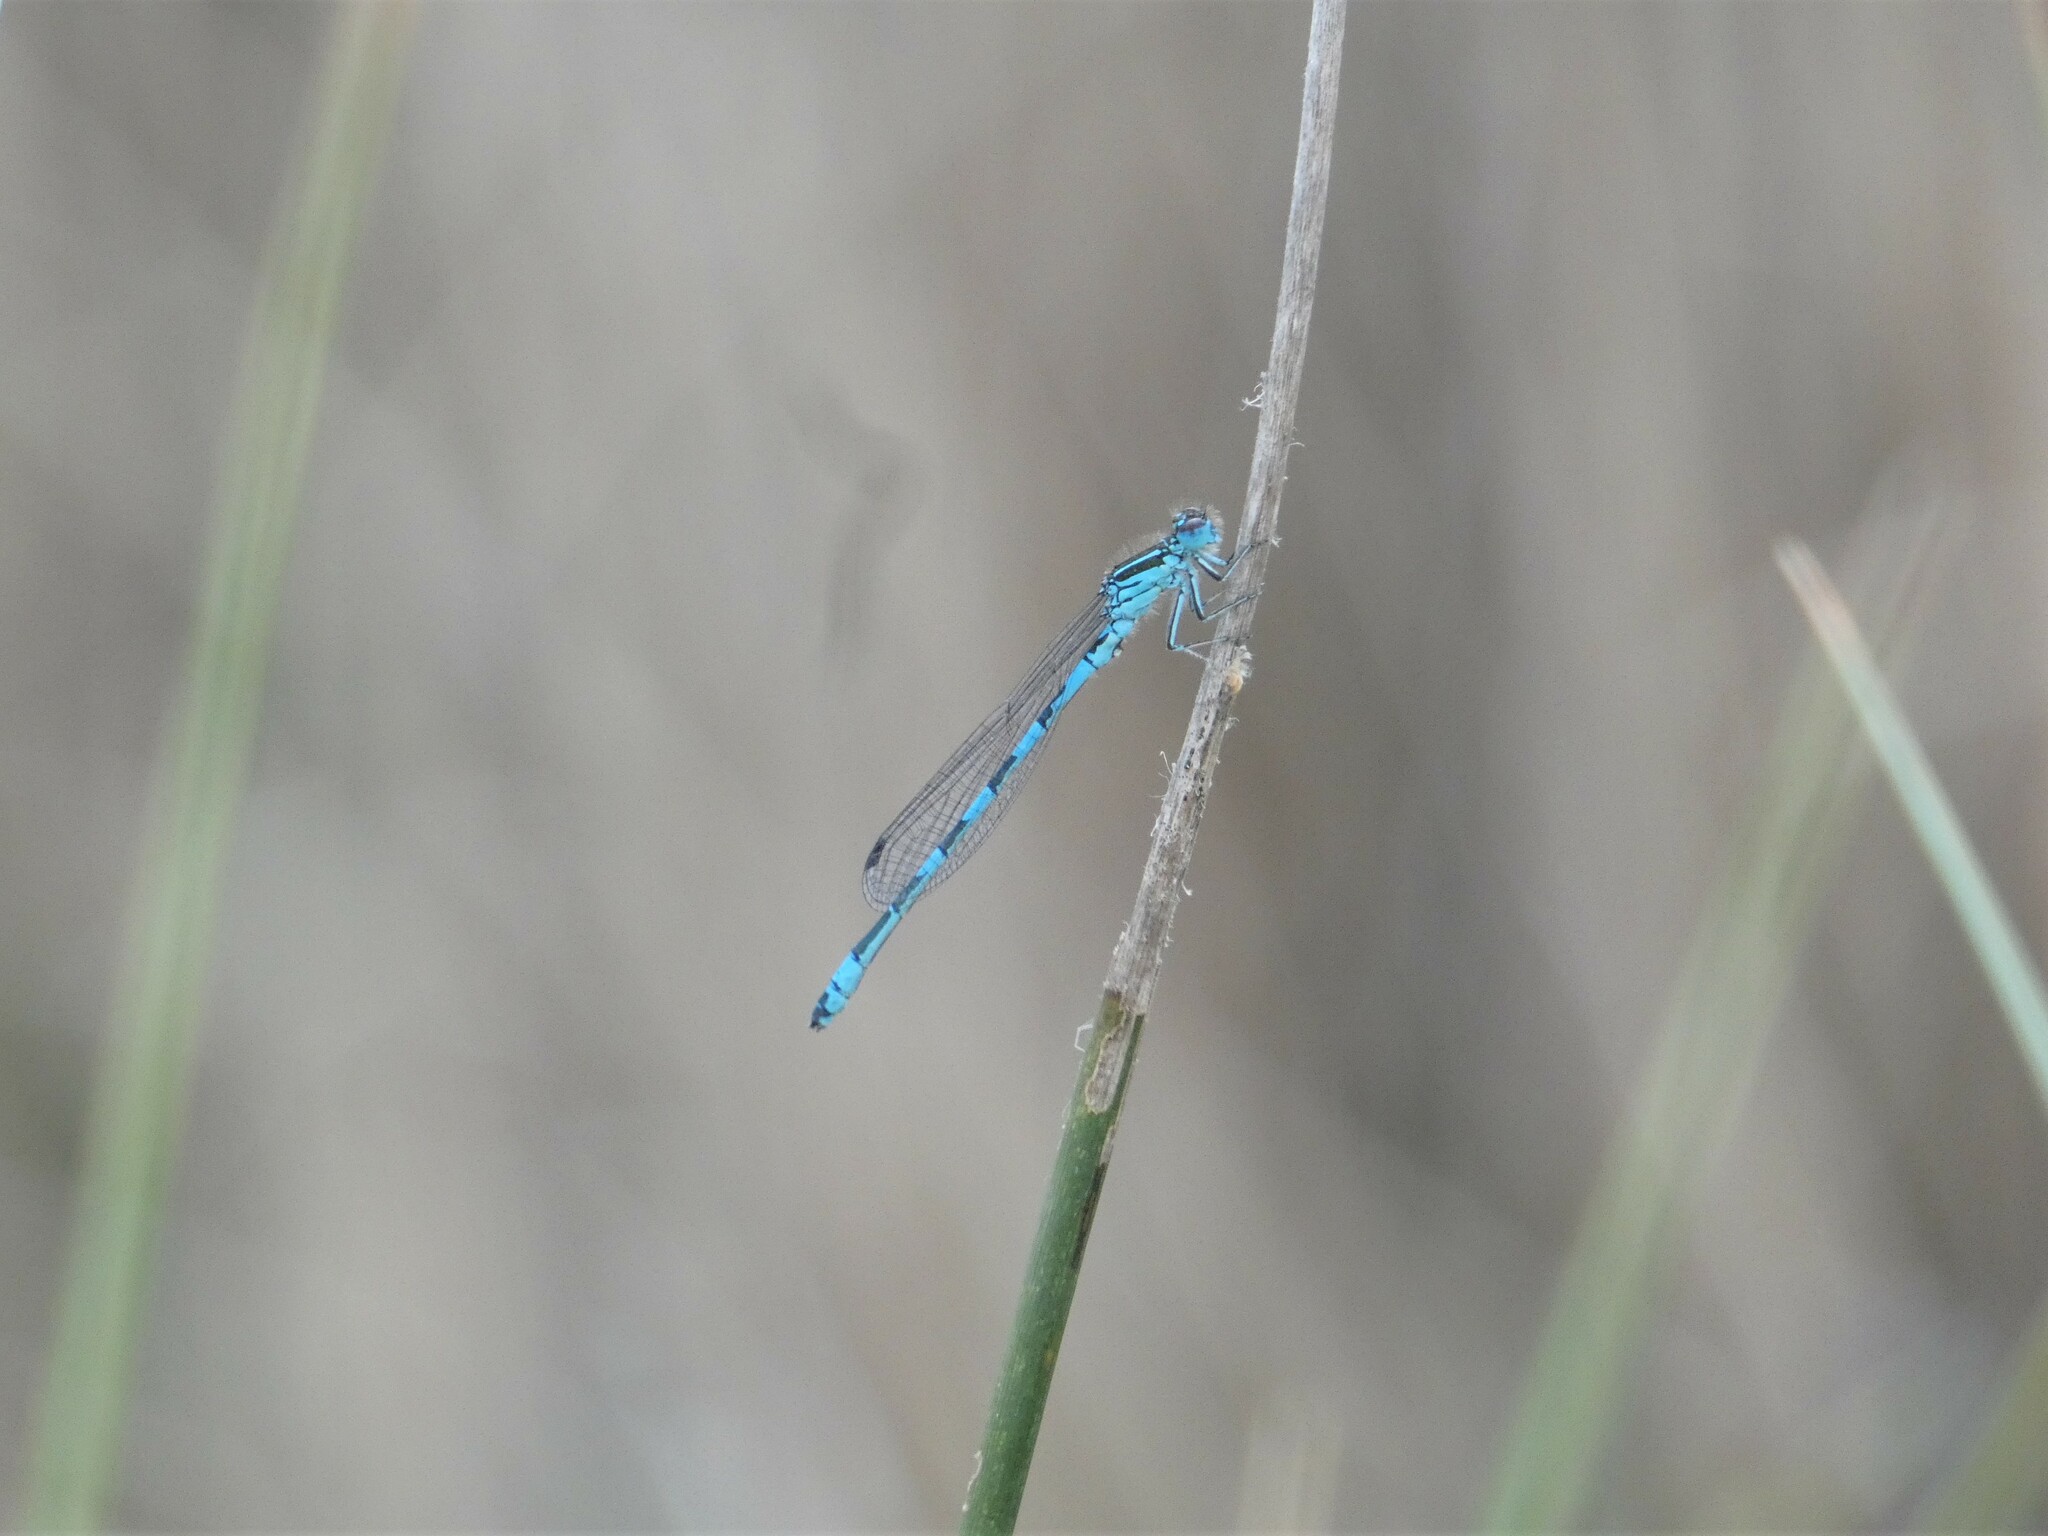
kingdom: Animalia
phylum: Arthropoda
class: Insecta
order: Odonata
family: Coenagrionidae
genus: Coenagrion
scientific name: Coenagrion mercuriale
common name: Southern damselfly
